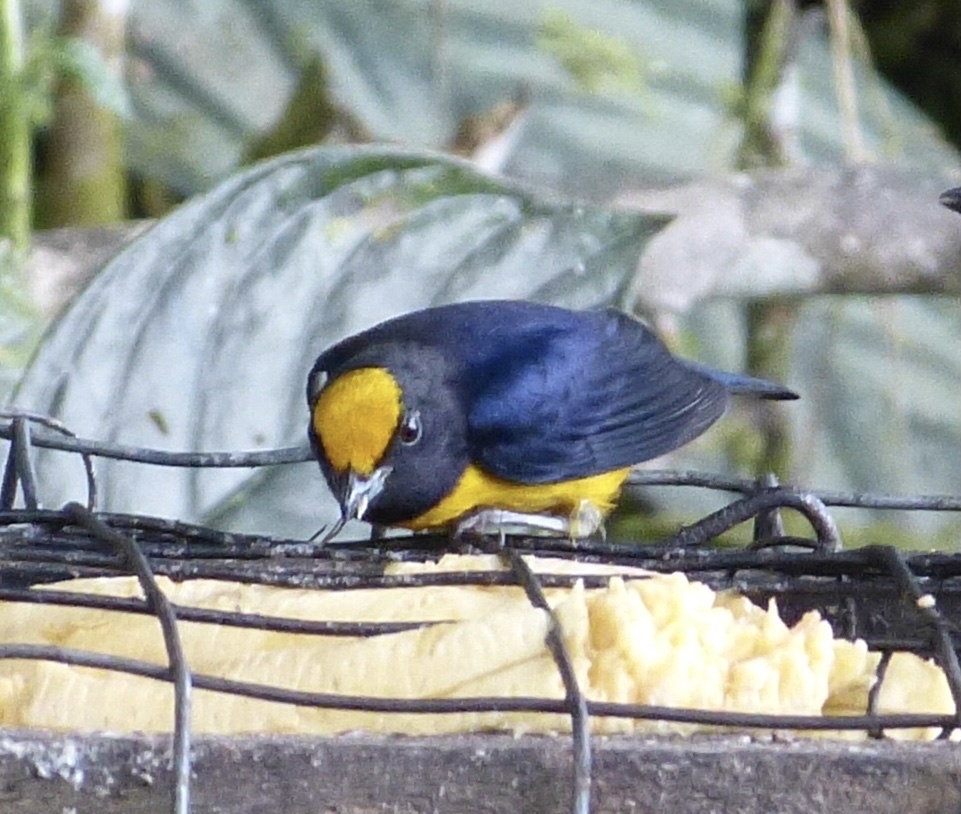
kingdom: Animalia
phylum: Chordata
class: Aves
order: Passeriformes
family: Fringillidae
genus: Euphonia
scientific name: Euphonia xanthogaster
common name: Orange-bellied euphonia
